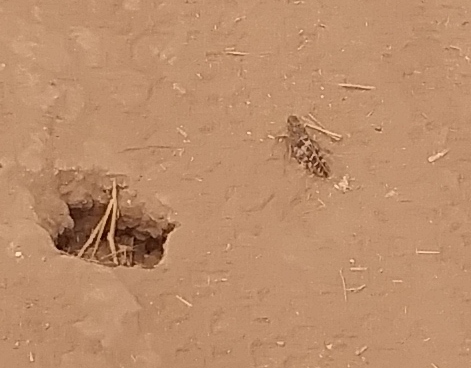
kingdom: Animalia
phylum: Arthropoda
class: Insecta
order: Orthoptera
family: Acrididae
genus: Leprus
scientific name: Leprus intermedius
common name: Saussure's blue-winged grasshopper
